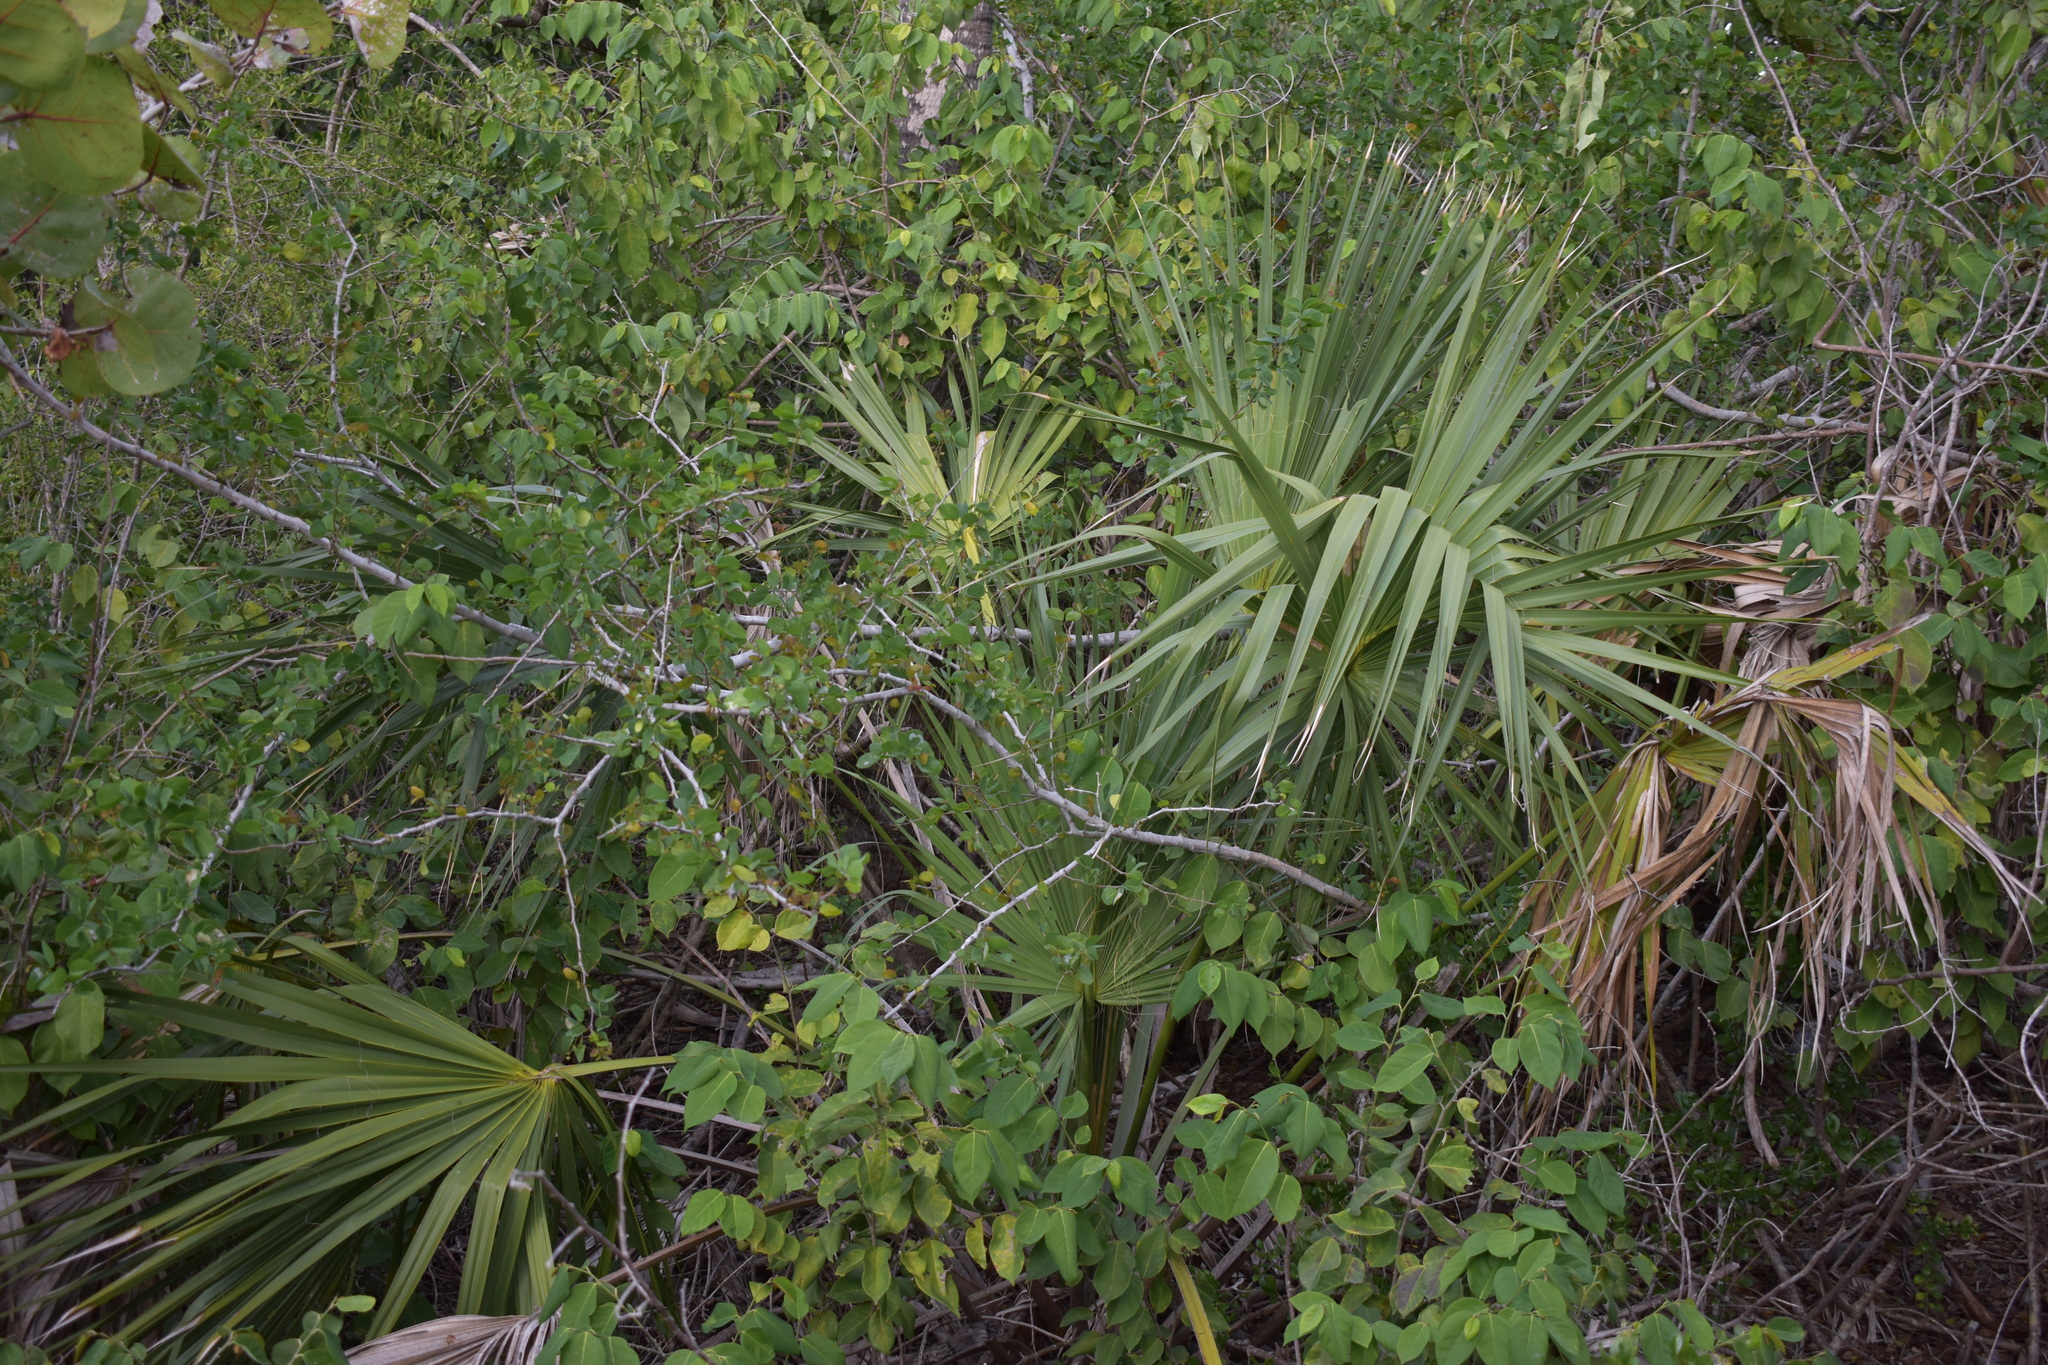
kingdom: Plantae
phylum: Tracheophyta
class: Liliopsida
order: Arecales
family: Arecaceae
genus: Sabal
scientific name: Sabal palmetto
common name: Blue palmetto
